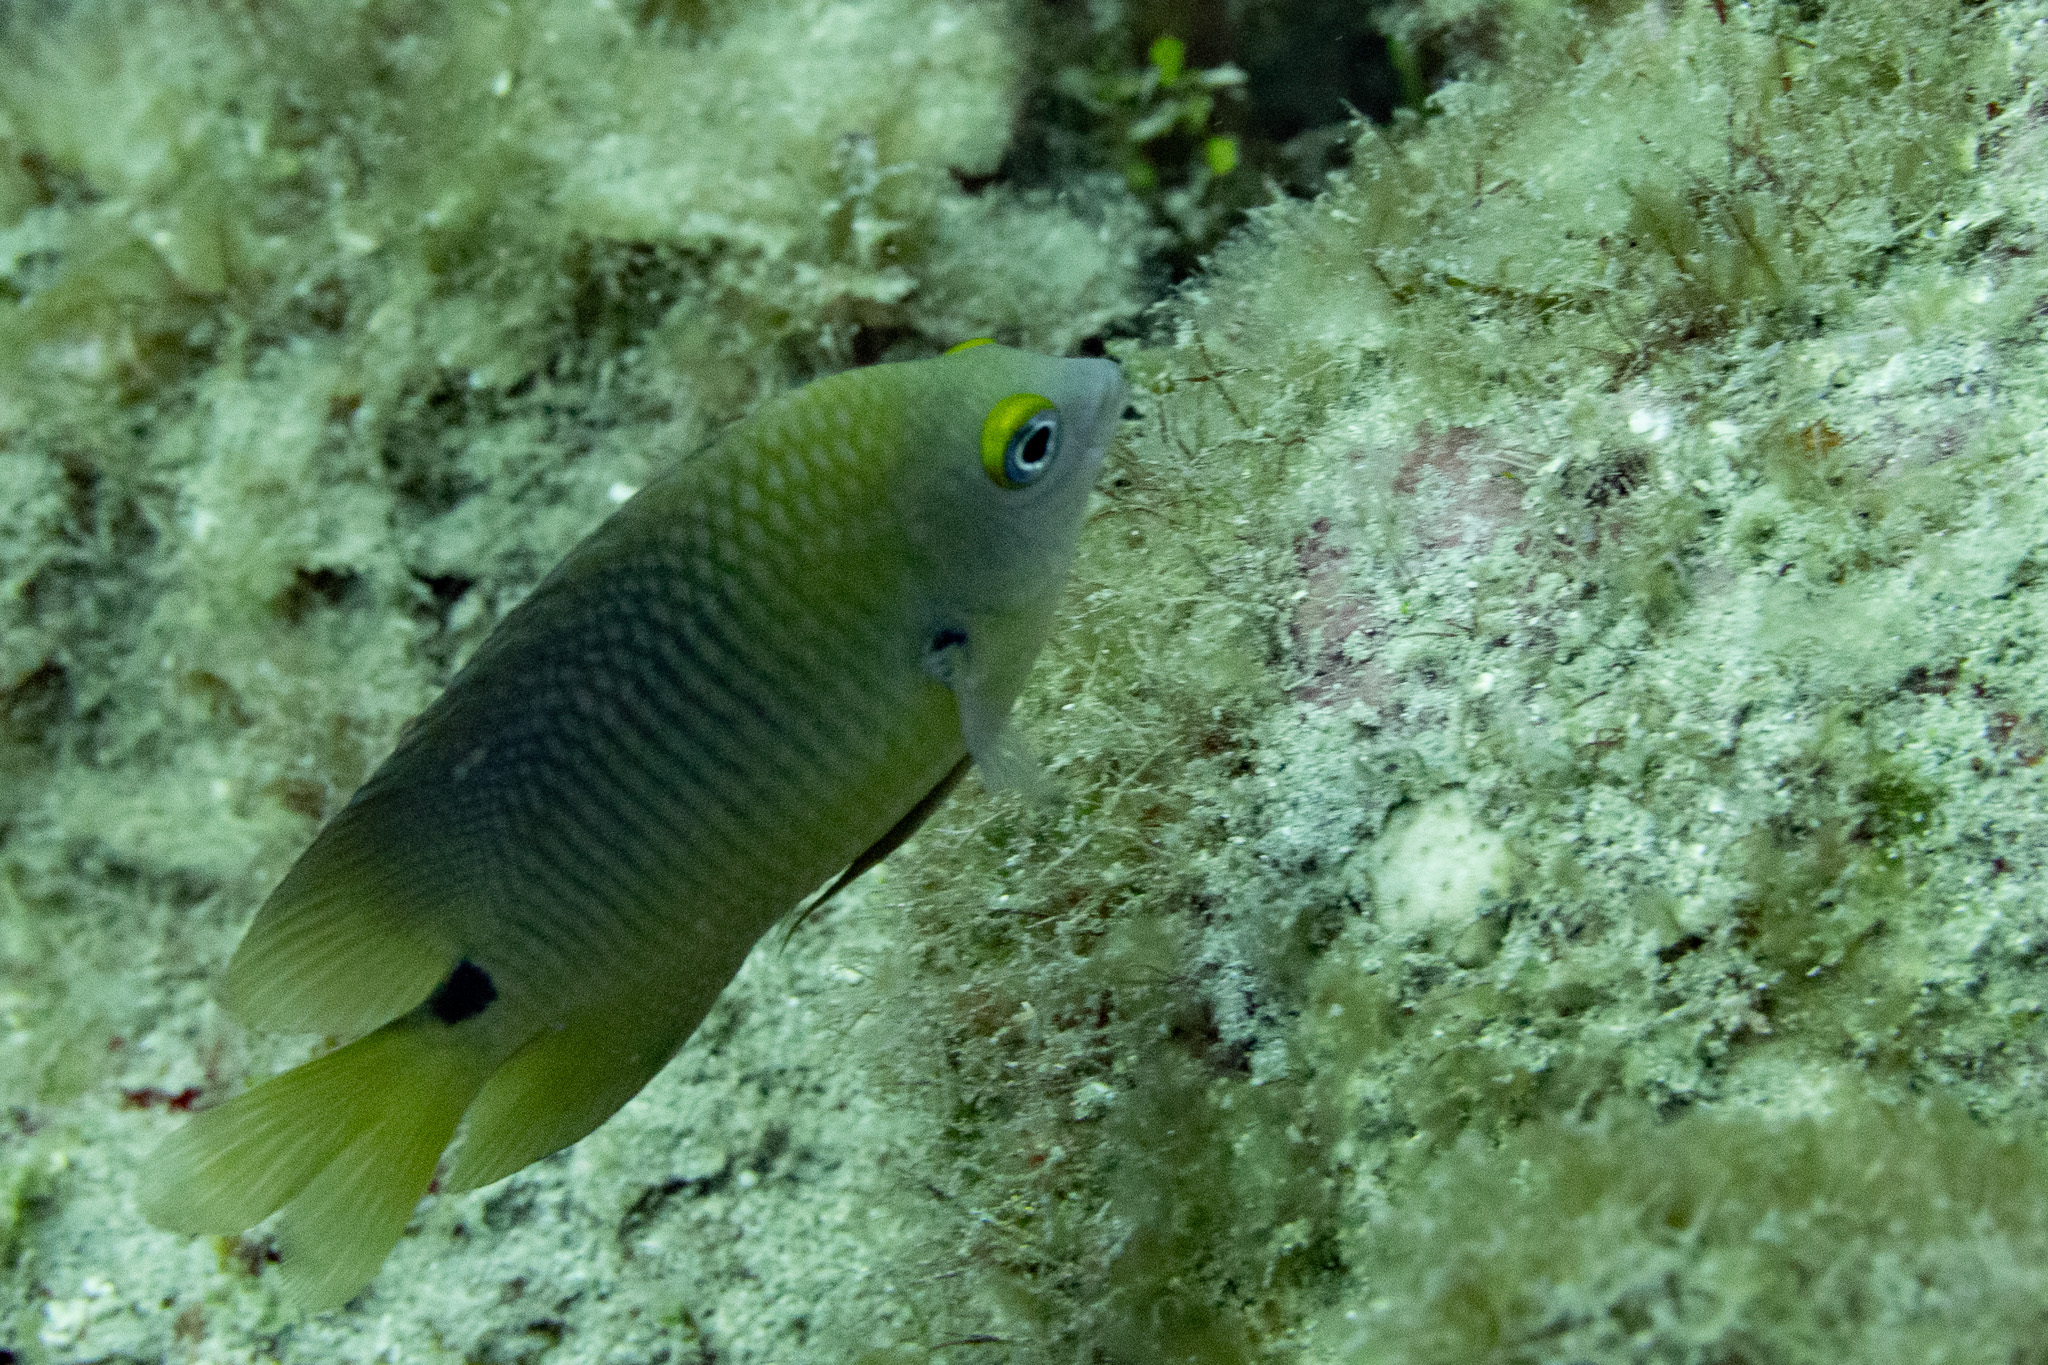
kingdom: Animalia
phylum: Chordata
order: Perciformes
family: Pomacentridae
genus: Stegastes
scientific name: Stegastes planifrons
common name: Threespot damselfish
